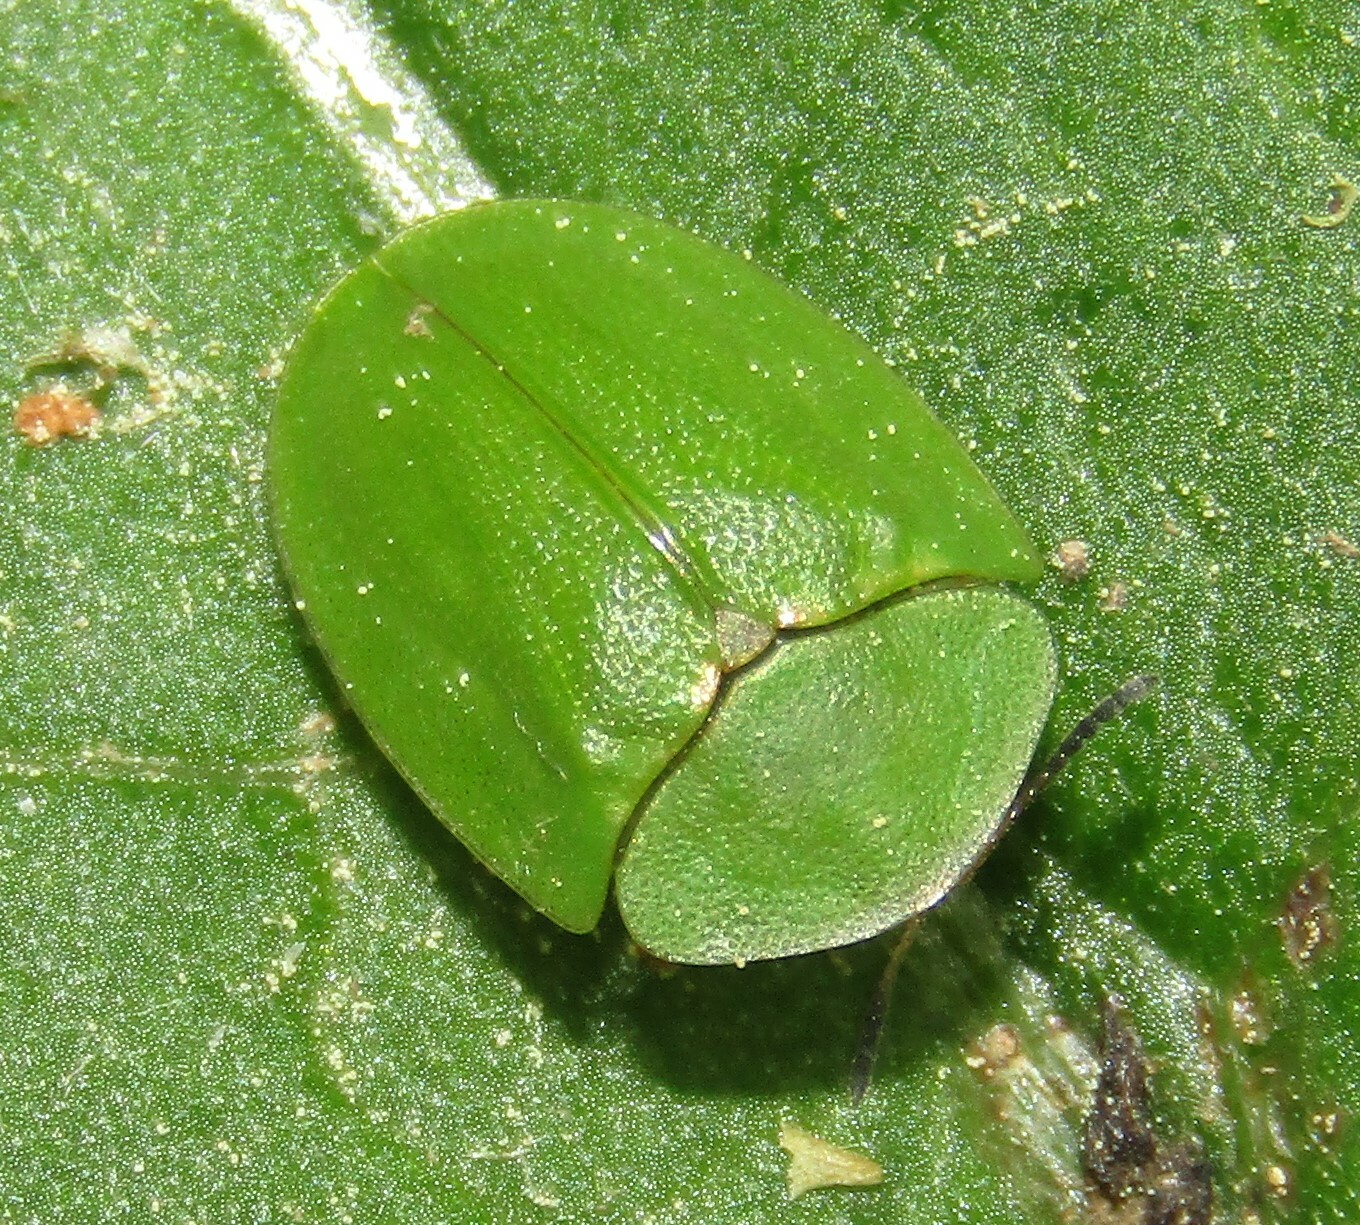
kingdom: Animalia
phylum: Arthropoda
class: Insecta
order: Coleoptera
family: Chrysomelidae
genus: Cassida
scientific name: Cassida viridis
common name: Green tortoise beetle
